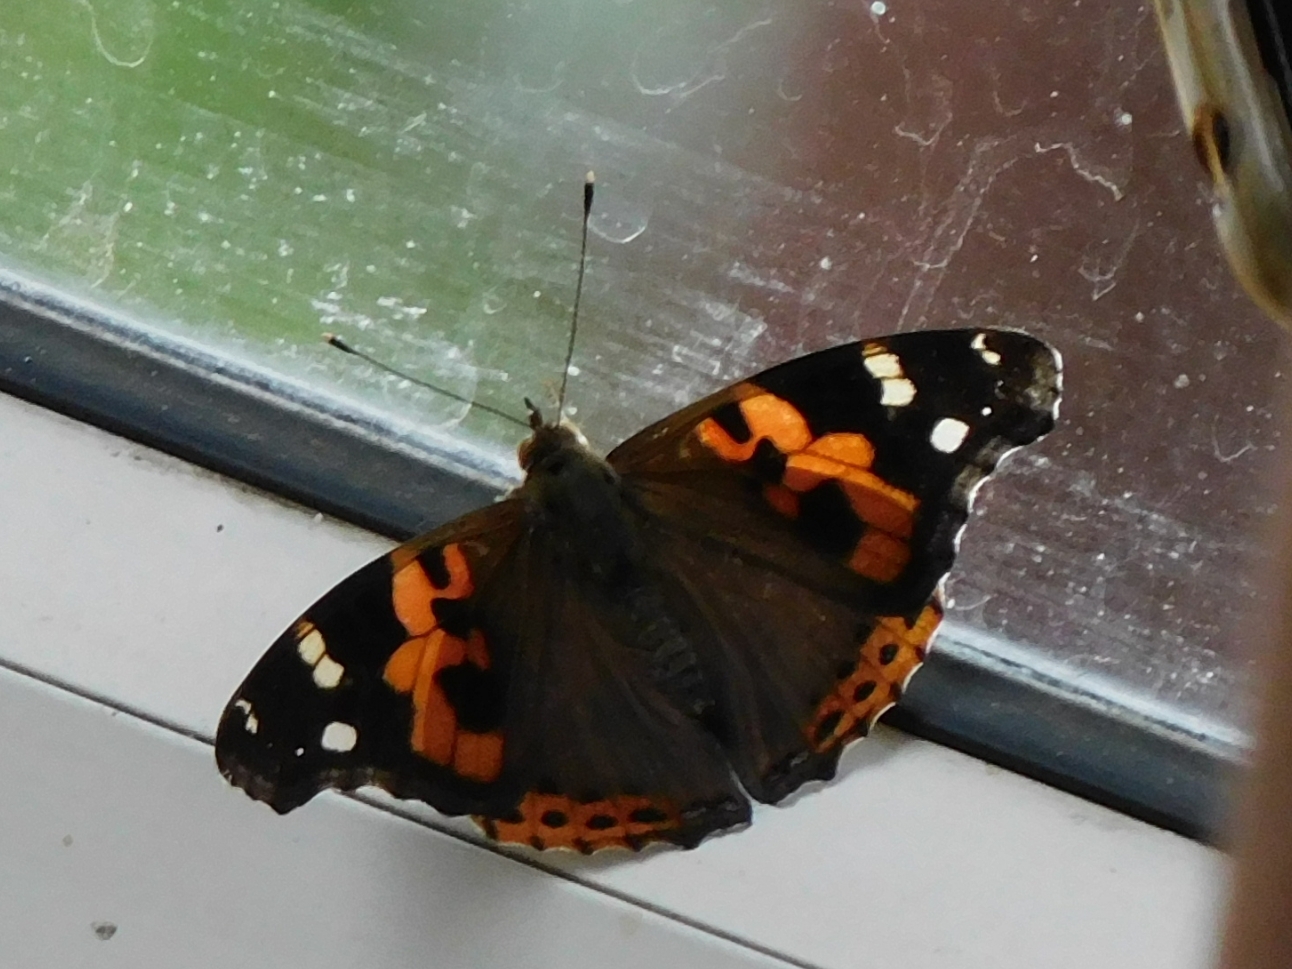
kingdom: Animalia
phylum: Arthropoda
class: Insecta
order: Lepidoptera
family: Nymphalidae
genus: Vanessa
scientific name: Vanessa indica
